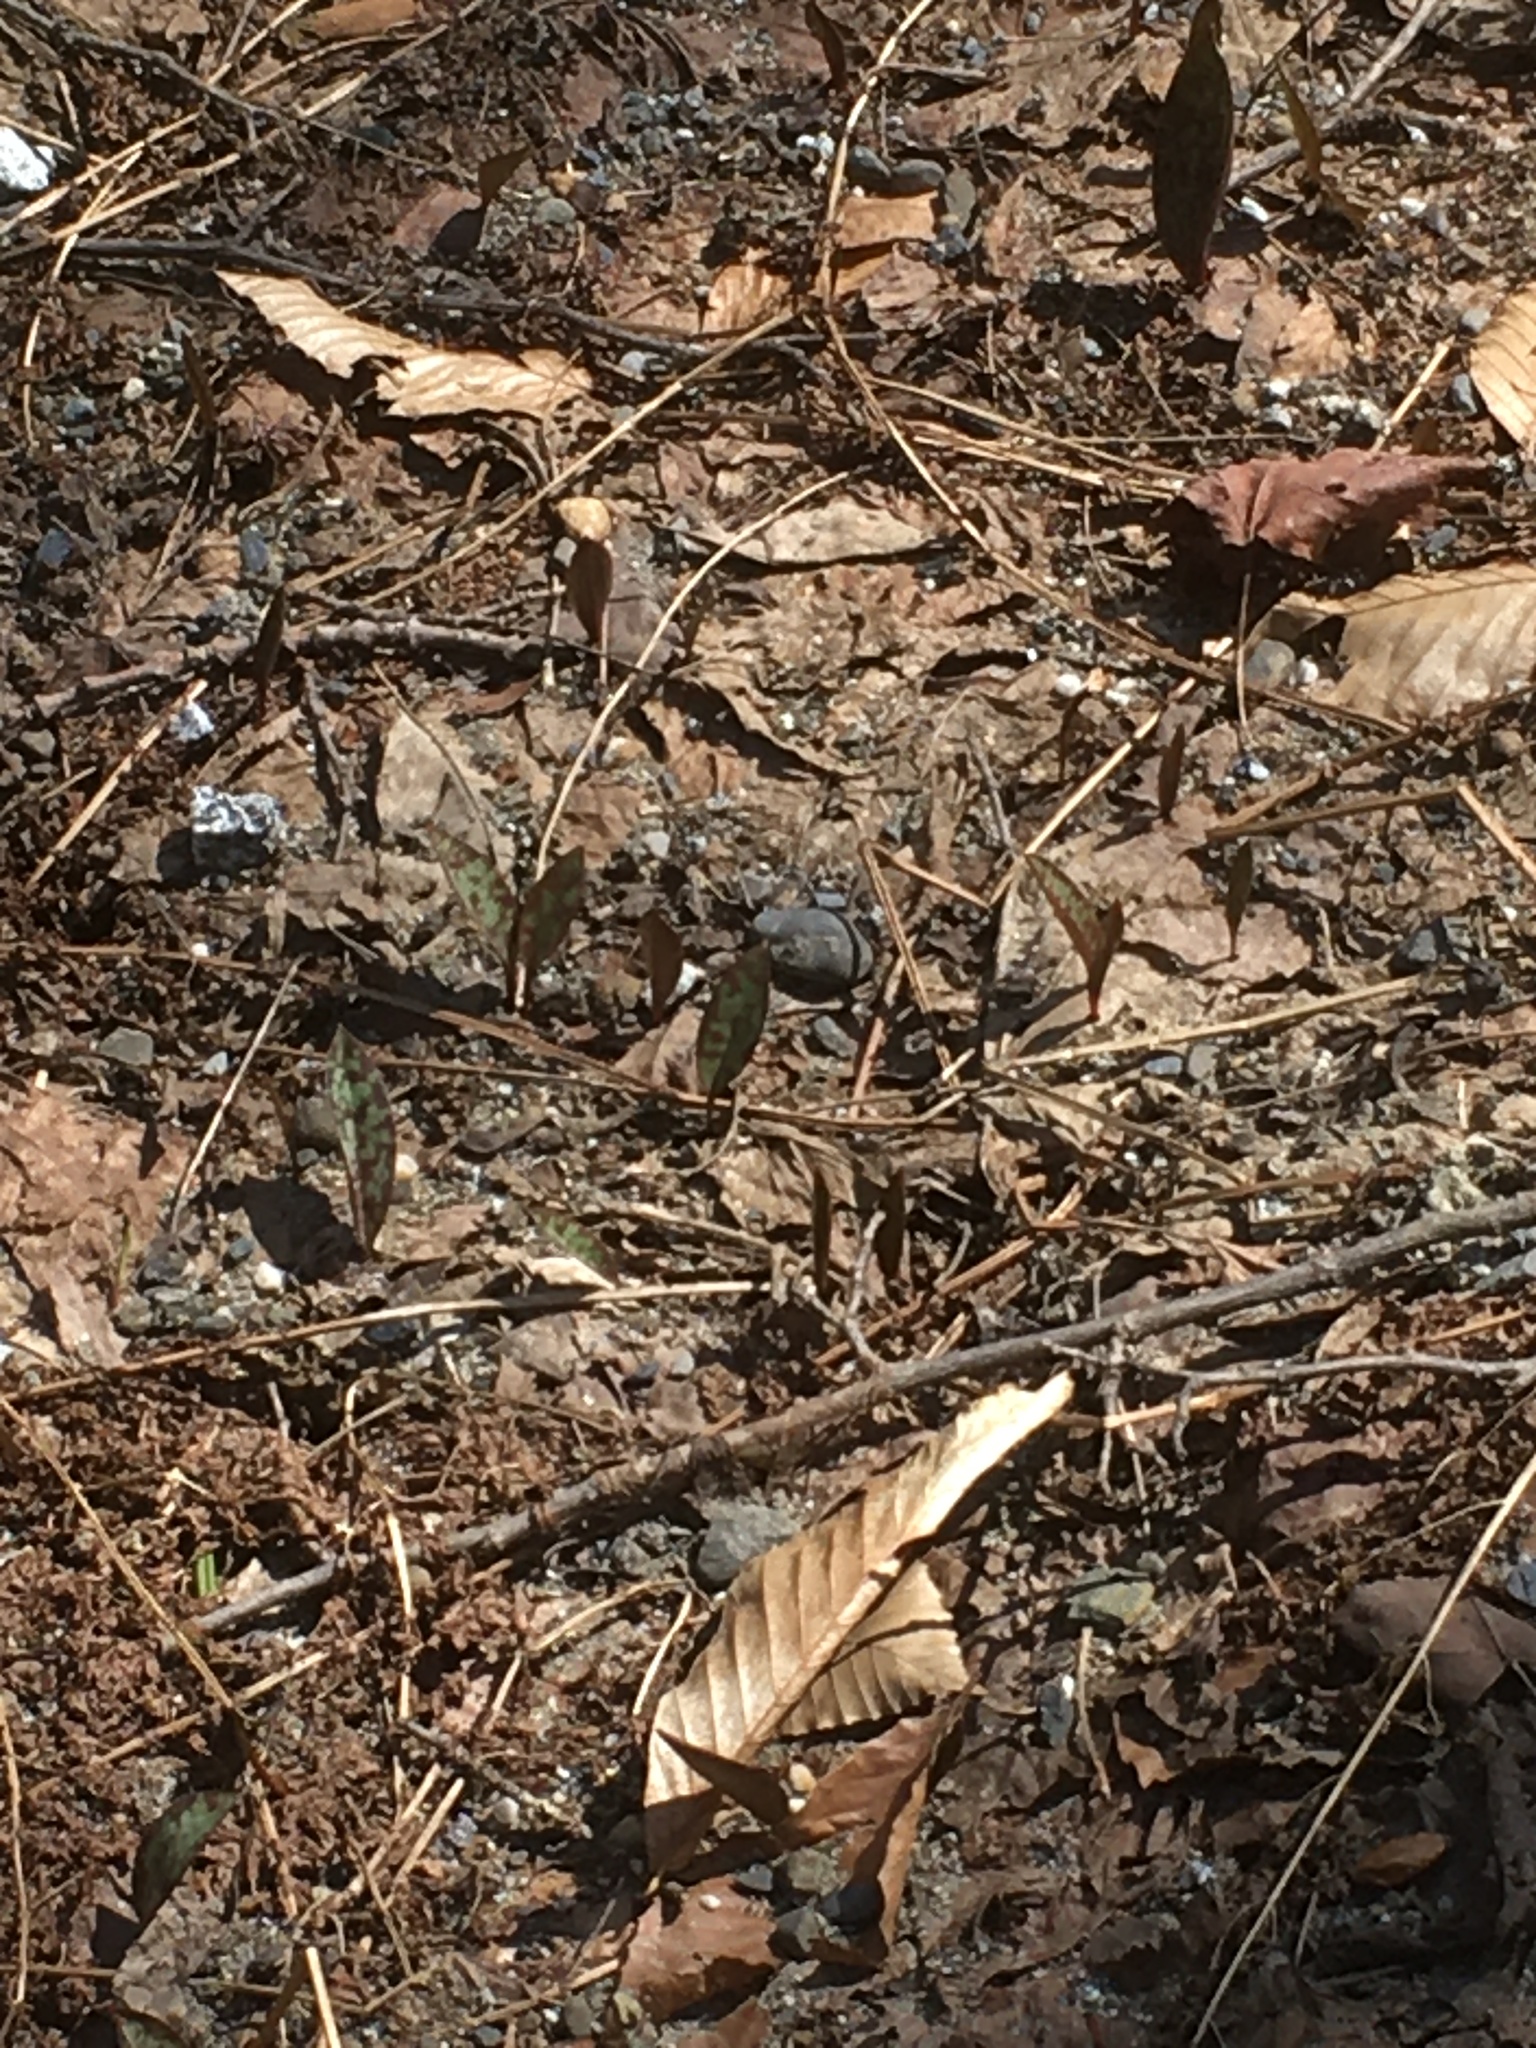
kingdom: Plantae
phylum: Tracheophyta
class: Liliopsida
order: Liliales
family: Liliaceae
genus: Erythronium
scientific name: Erythronium americanum
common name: Yellow adder's-tongue
